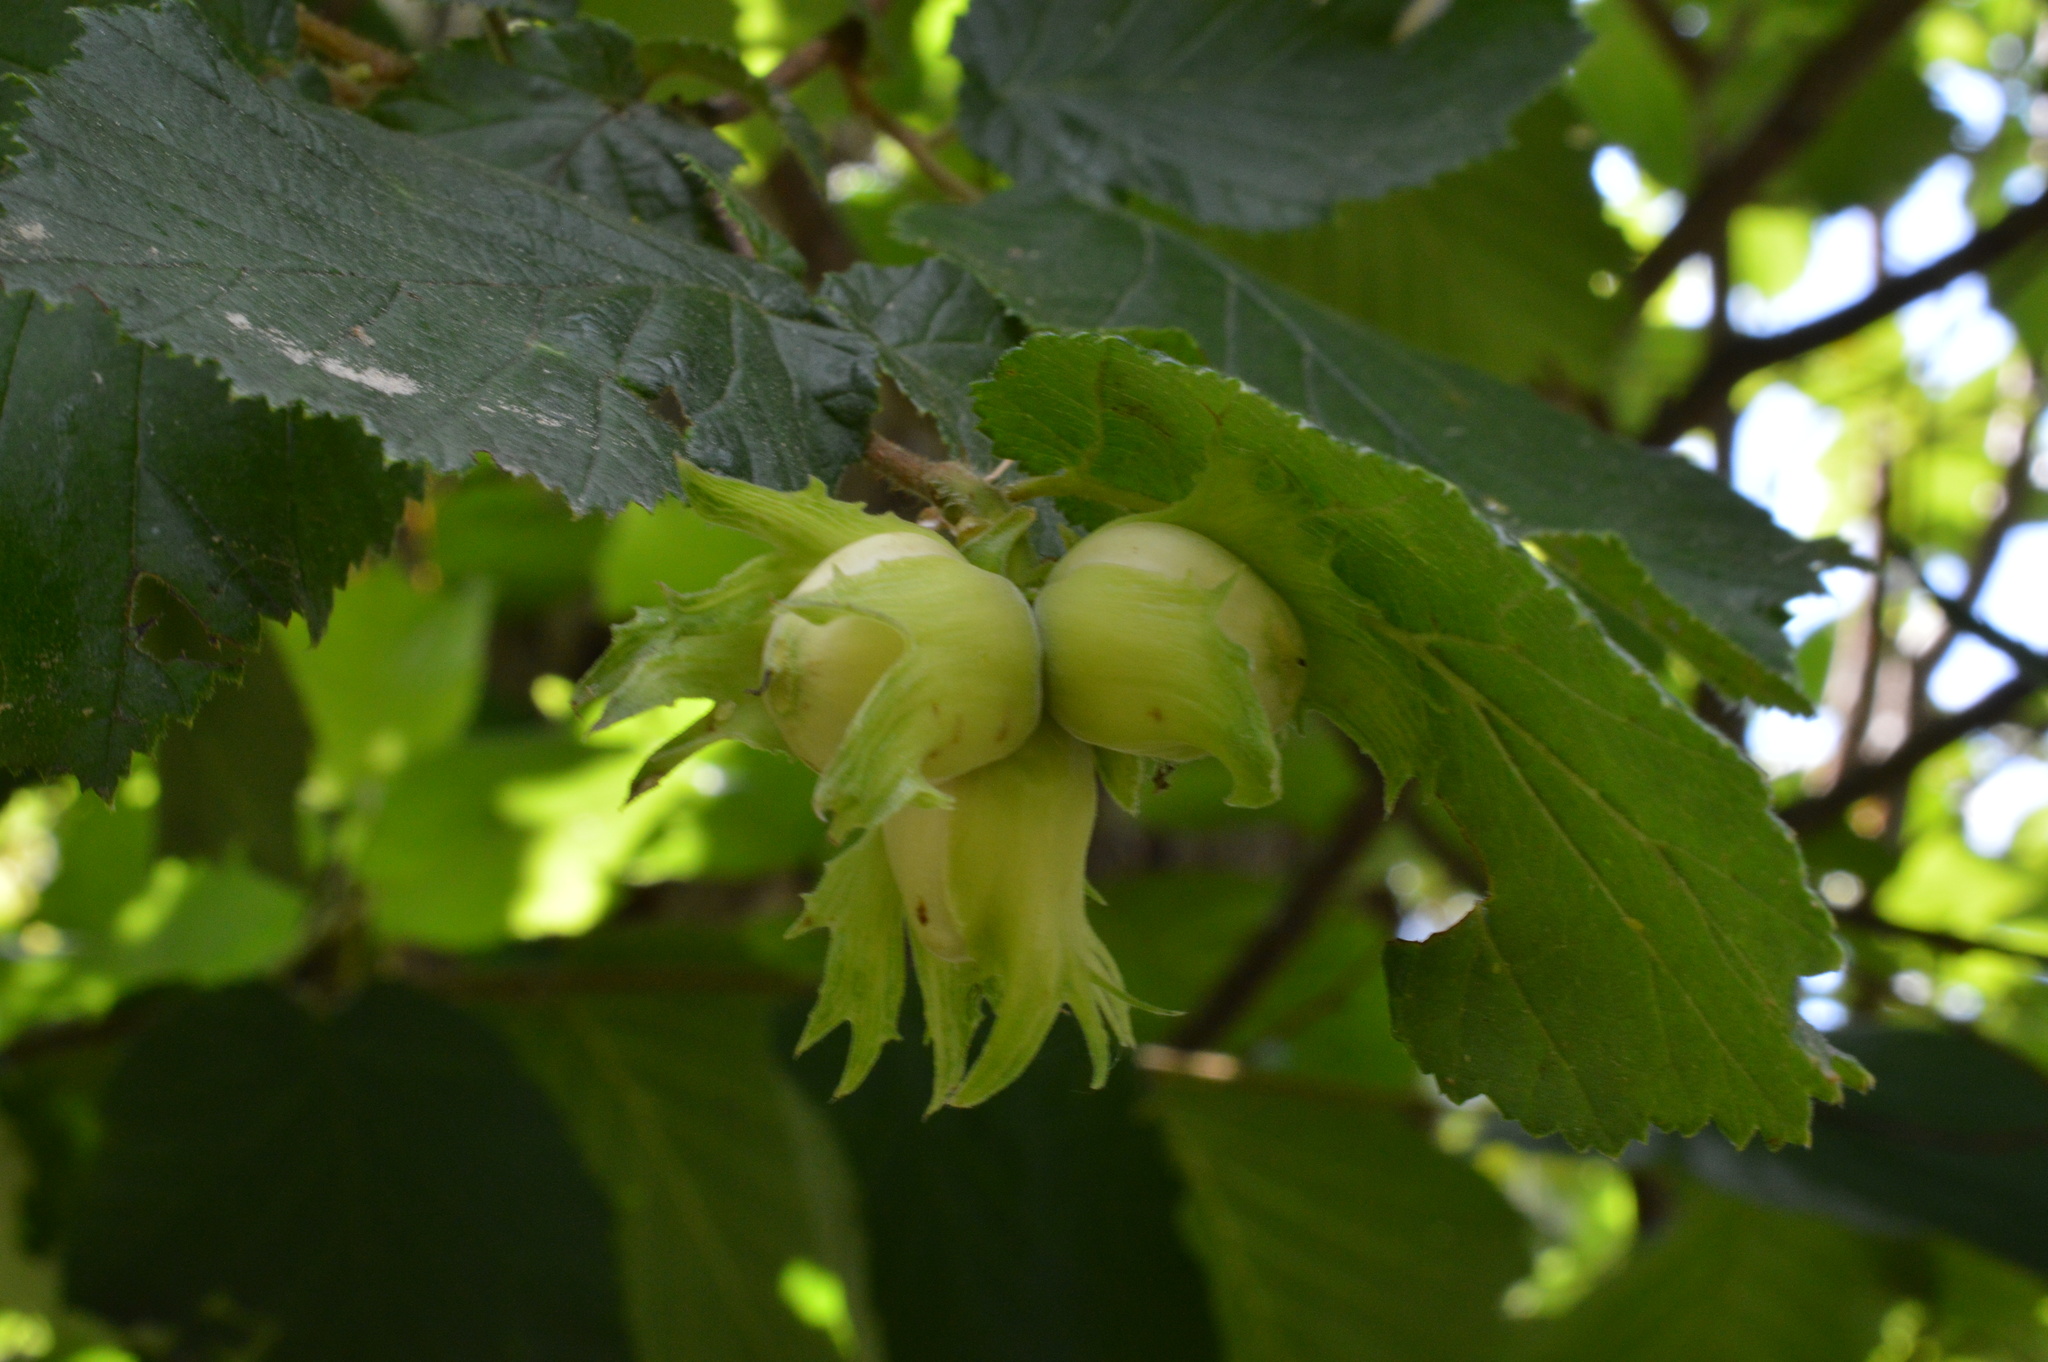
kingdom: Plantae
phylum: Tracheophyta
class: Magnoliopsida
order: Fagales
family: Betulaceae
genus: Corylus
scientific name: Corylus avellana
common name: European hazel
